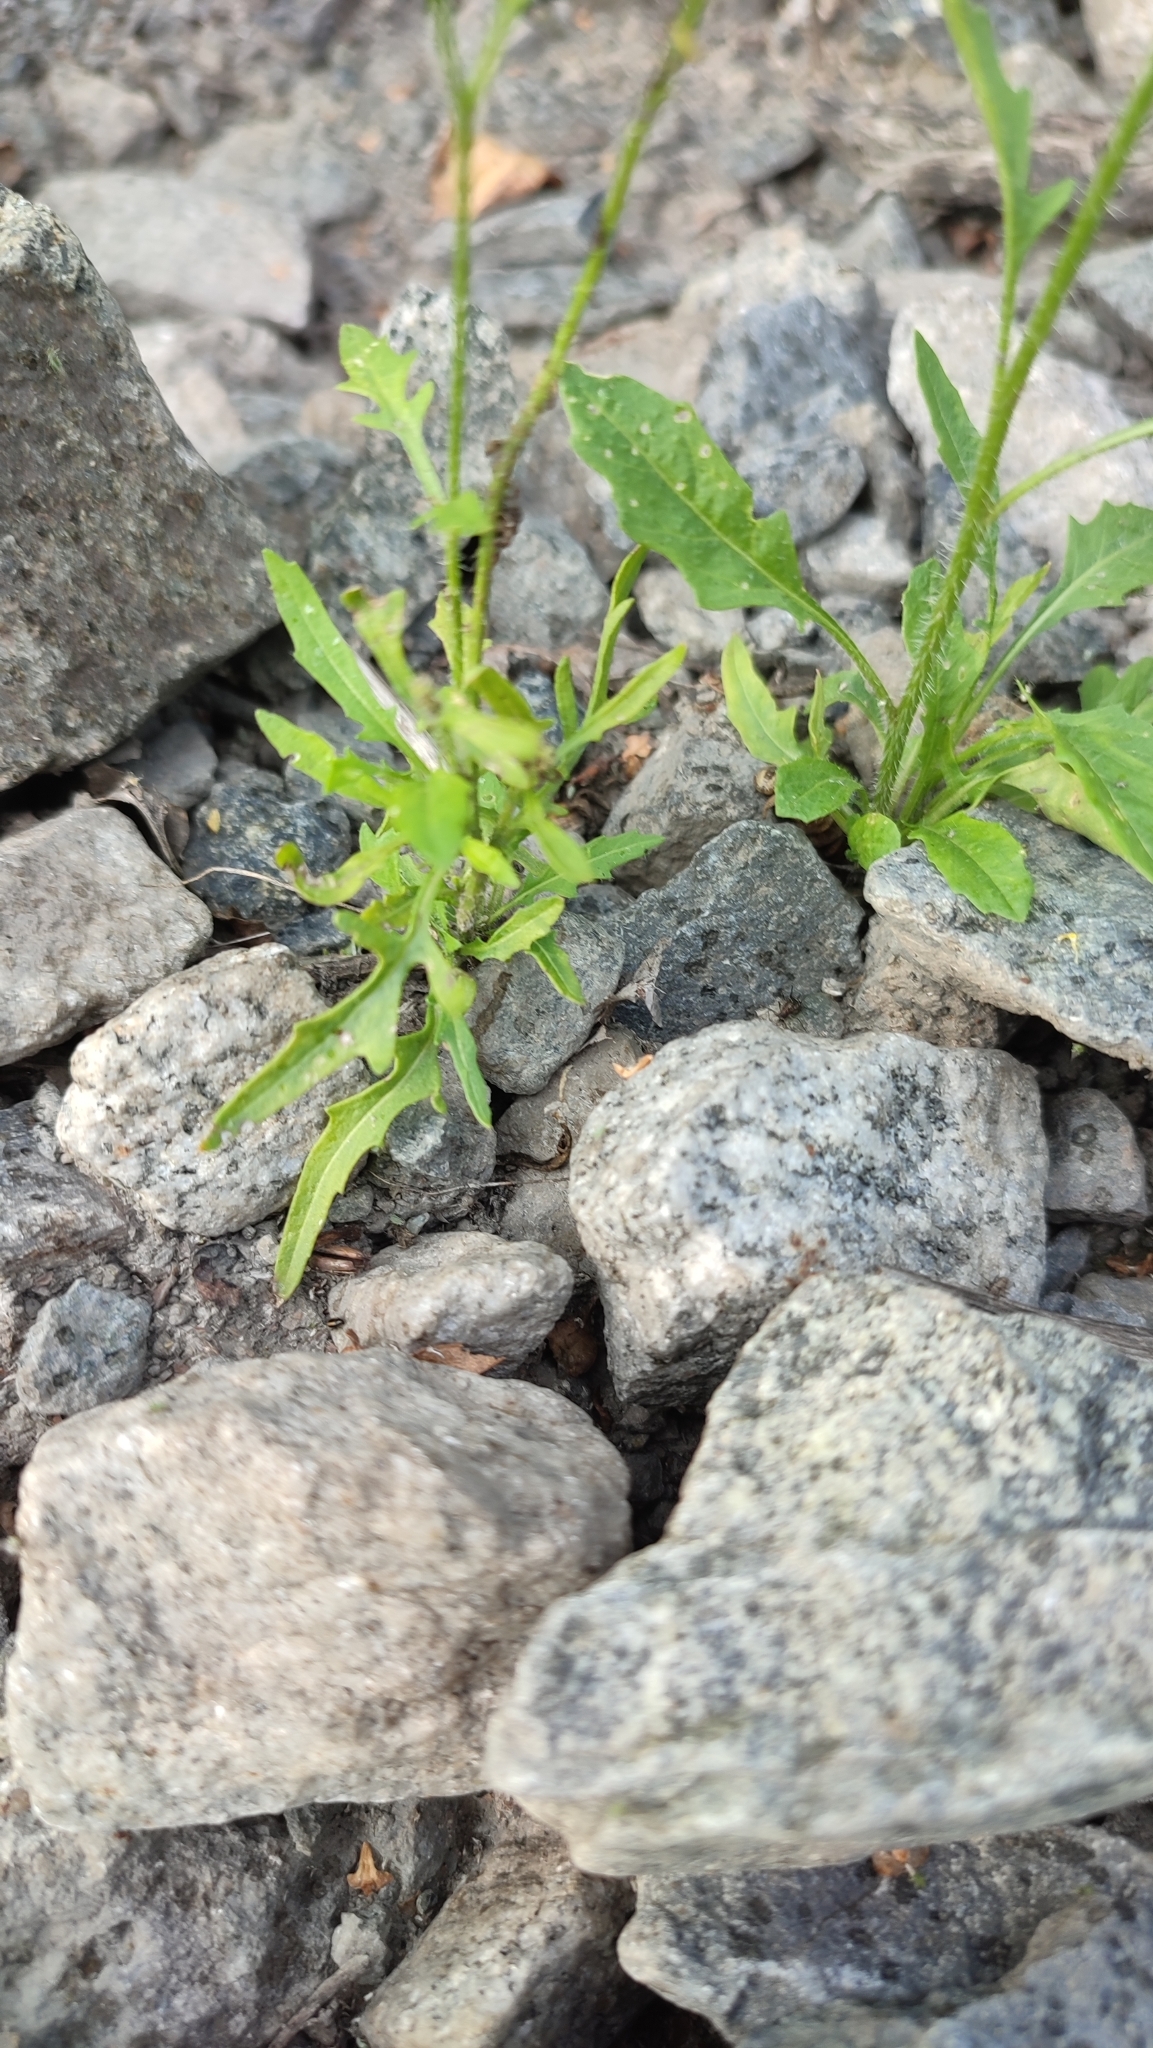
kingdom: Plantae
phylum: Tracheophyta
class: Magnoliopsida
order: Brassicales
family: Brassicaceae
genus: Sisymbrium
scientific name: Sisymbrium loeselii
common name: False london-rocket
